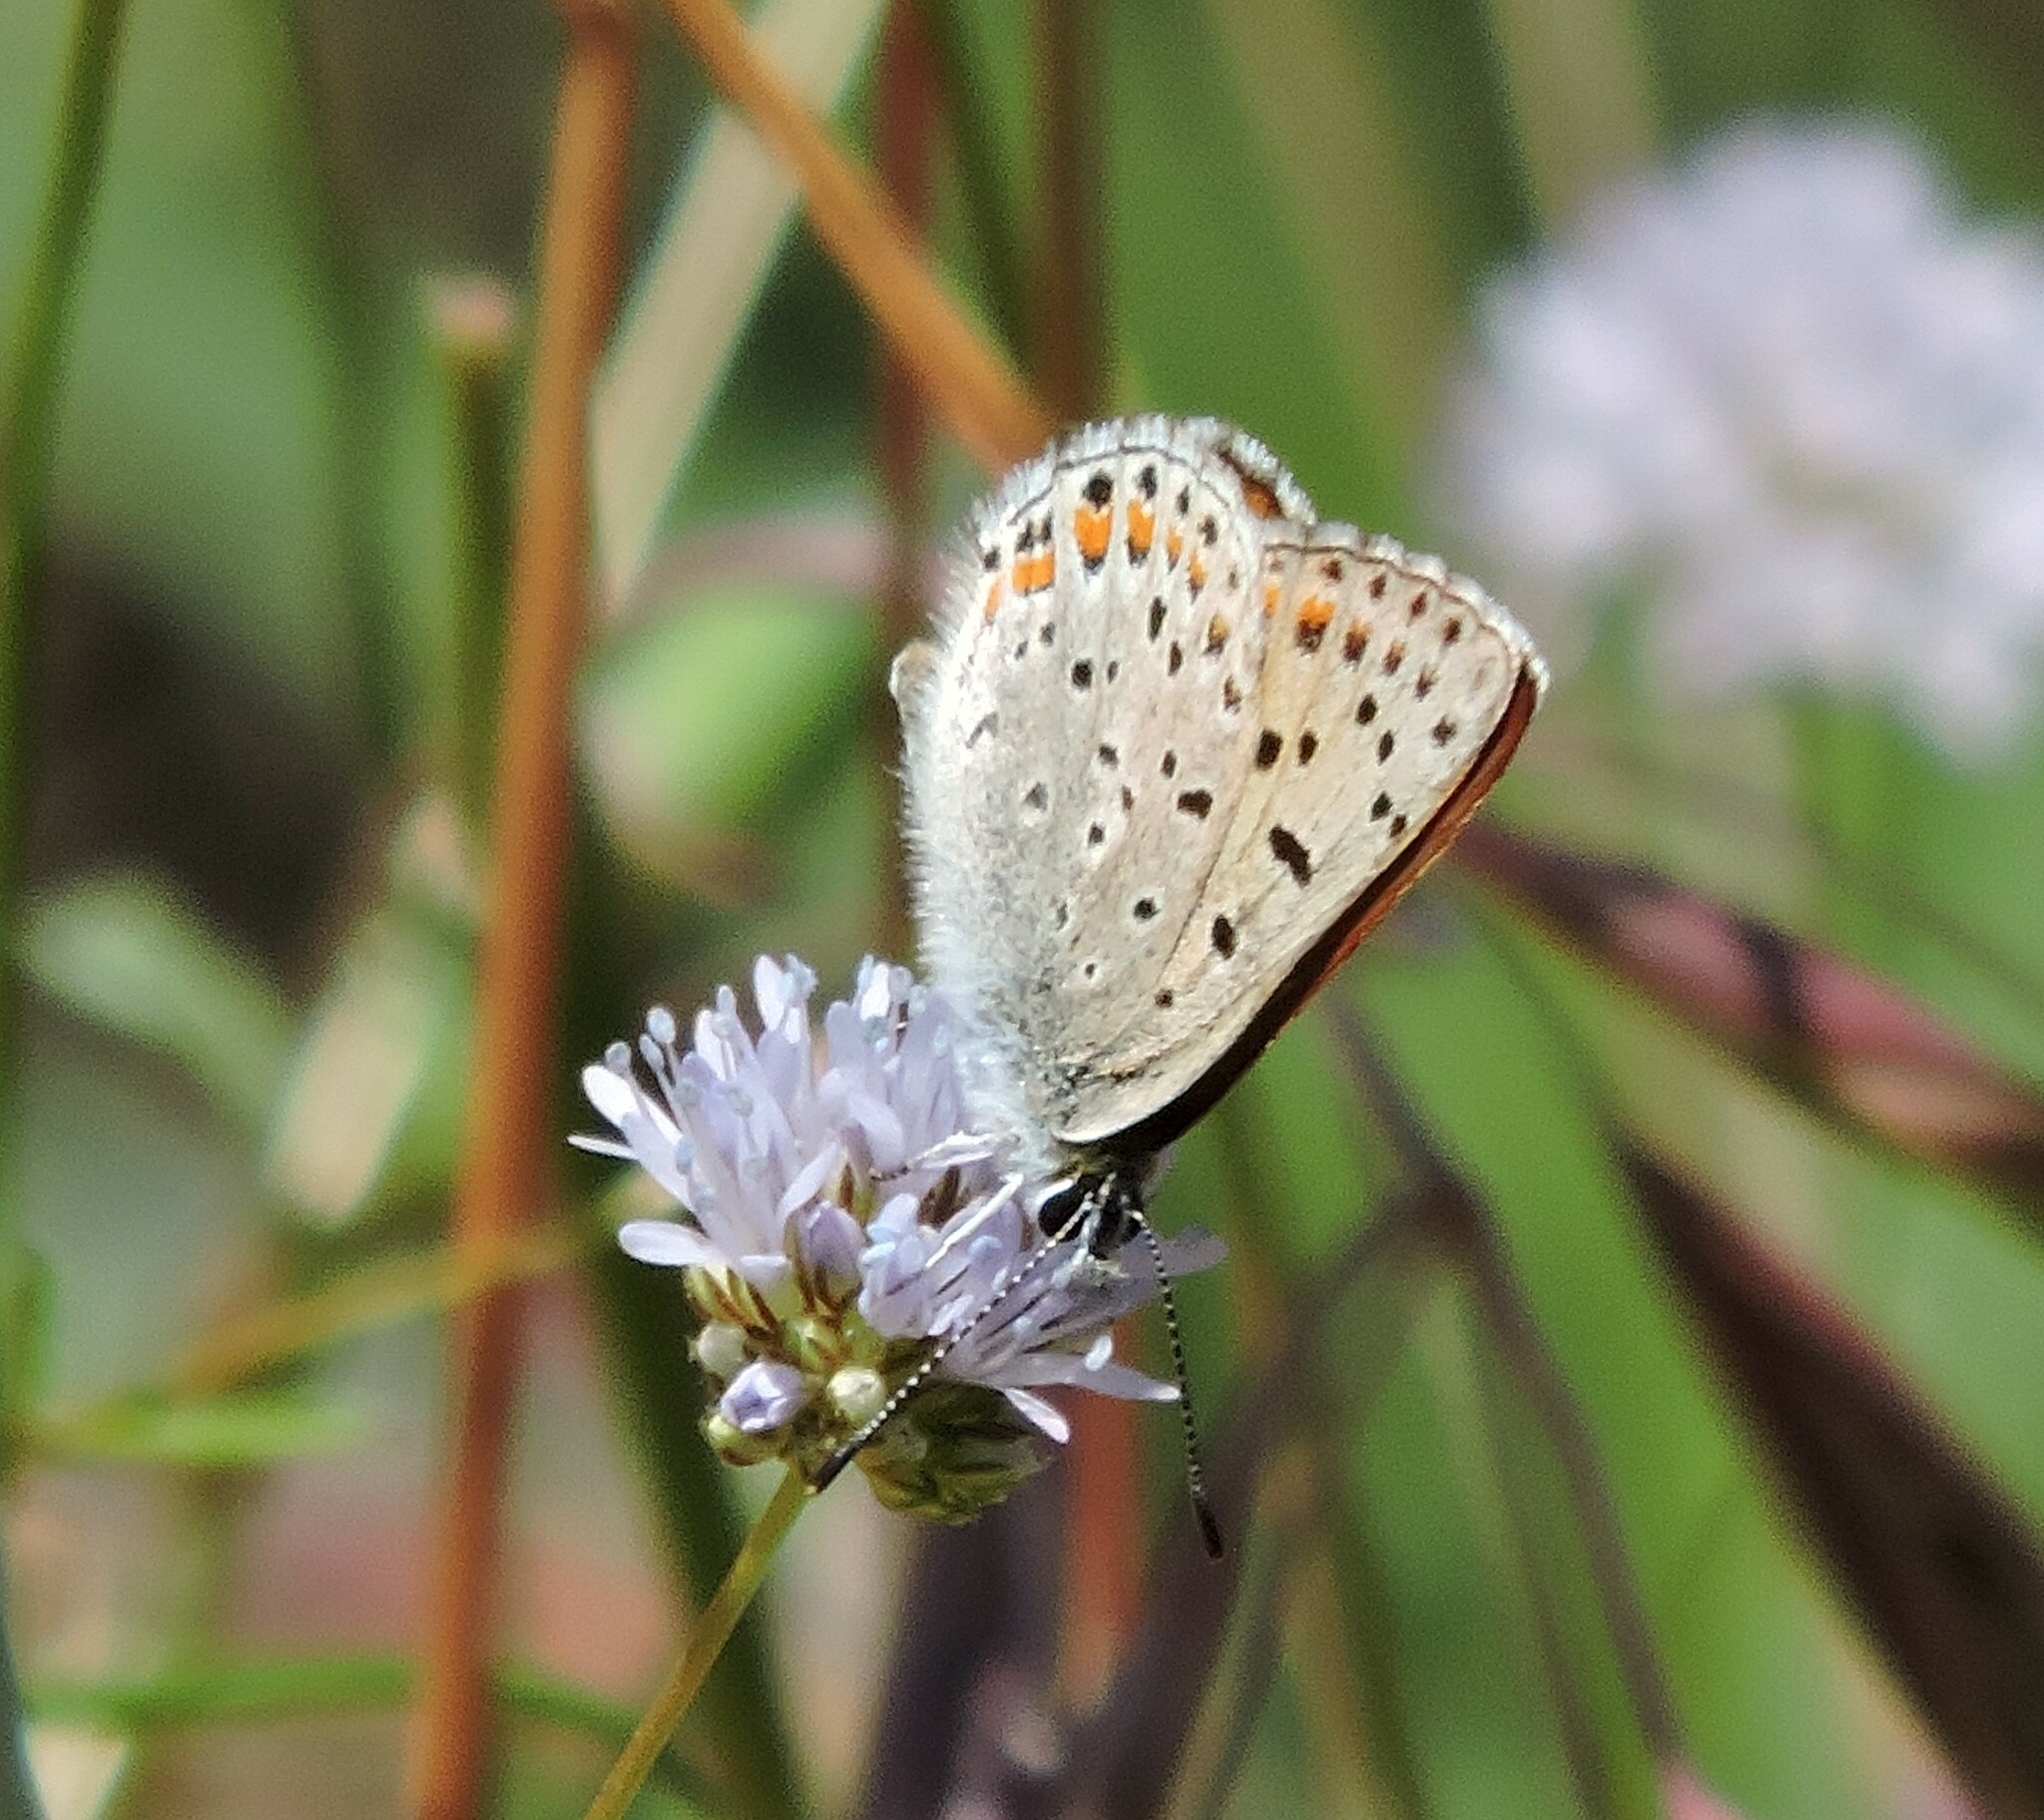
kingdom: Animalia
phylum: Arthropoda
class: Insecta
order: Lepidoptera
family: Lycaenidae
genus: Tharsalea
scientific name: Tharsalea gorgon
